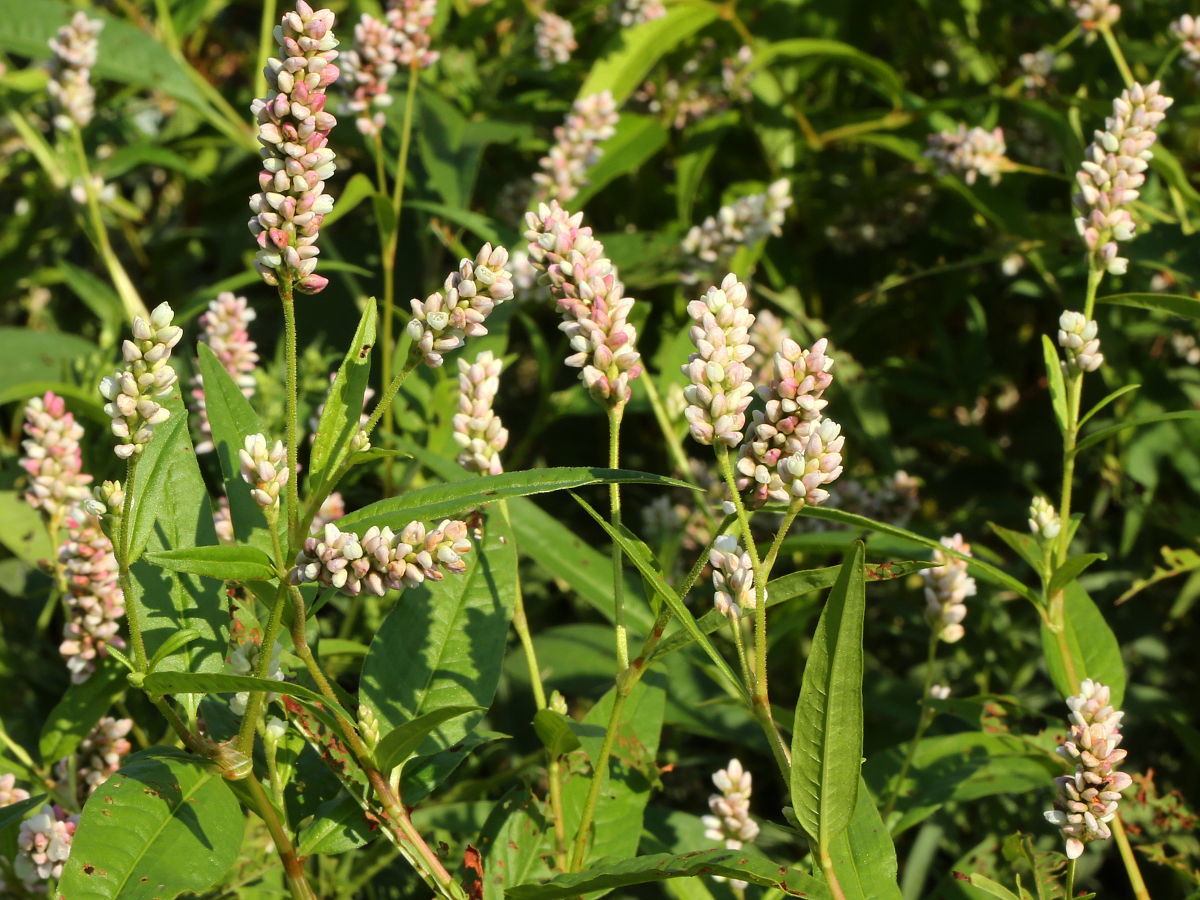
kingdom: Plantae
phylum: Tracheophyta
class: Magnoliopsida
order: Caryophyllales
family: Polygonaceae
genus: Persicaria
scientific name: Persicaria pensylvanica
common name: Pinkweed
